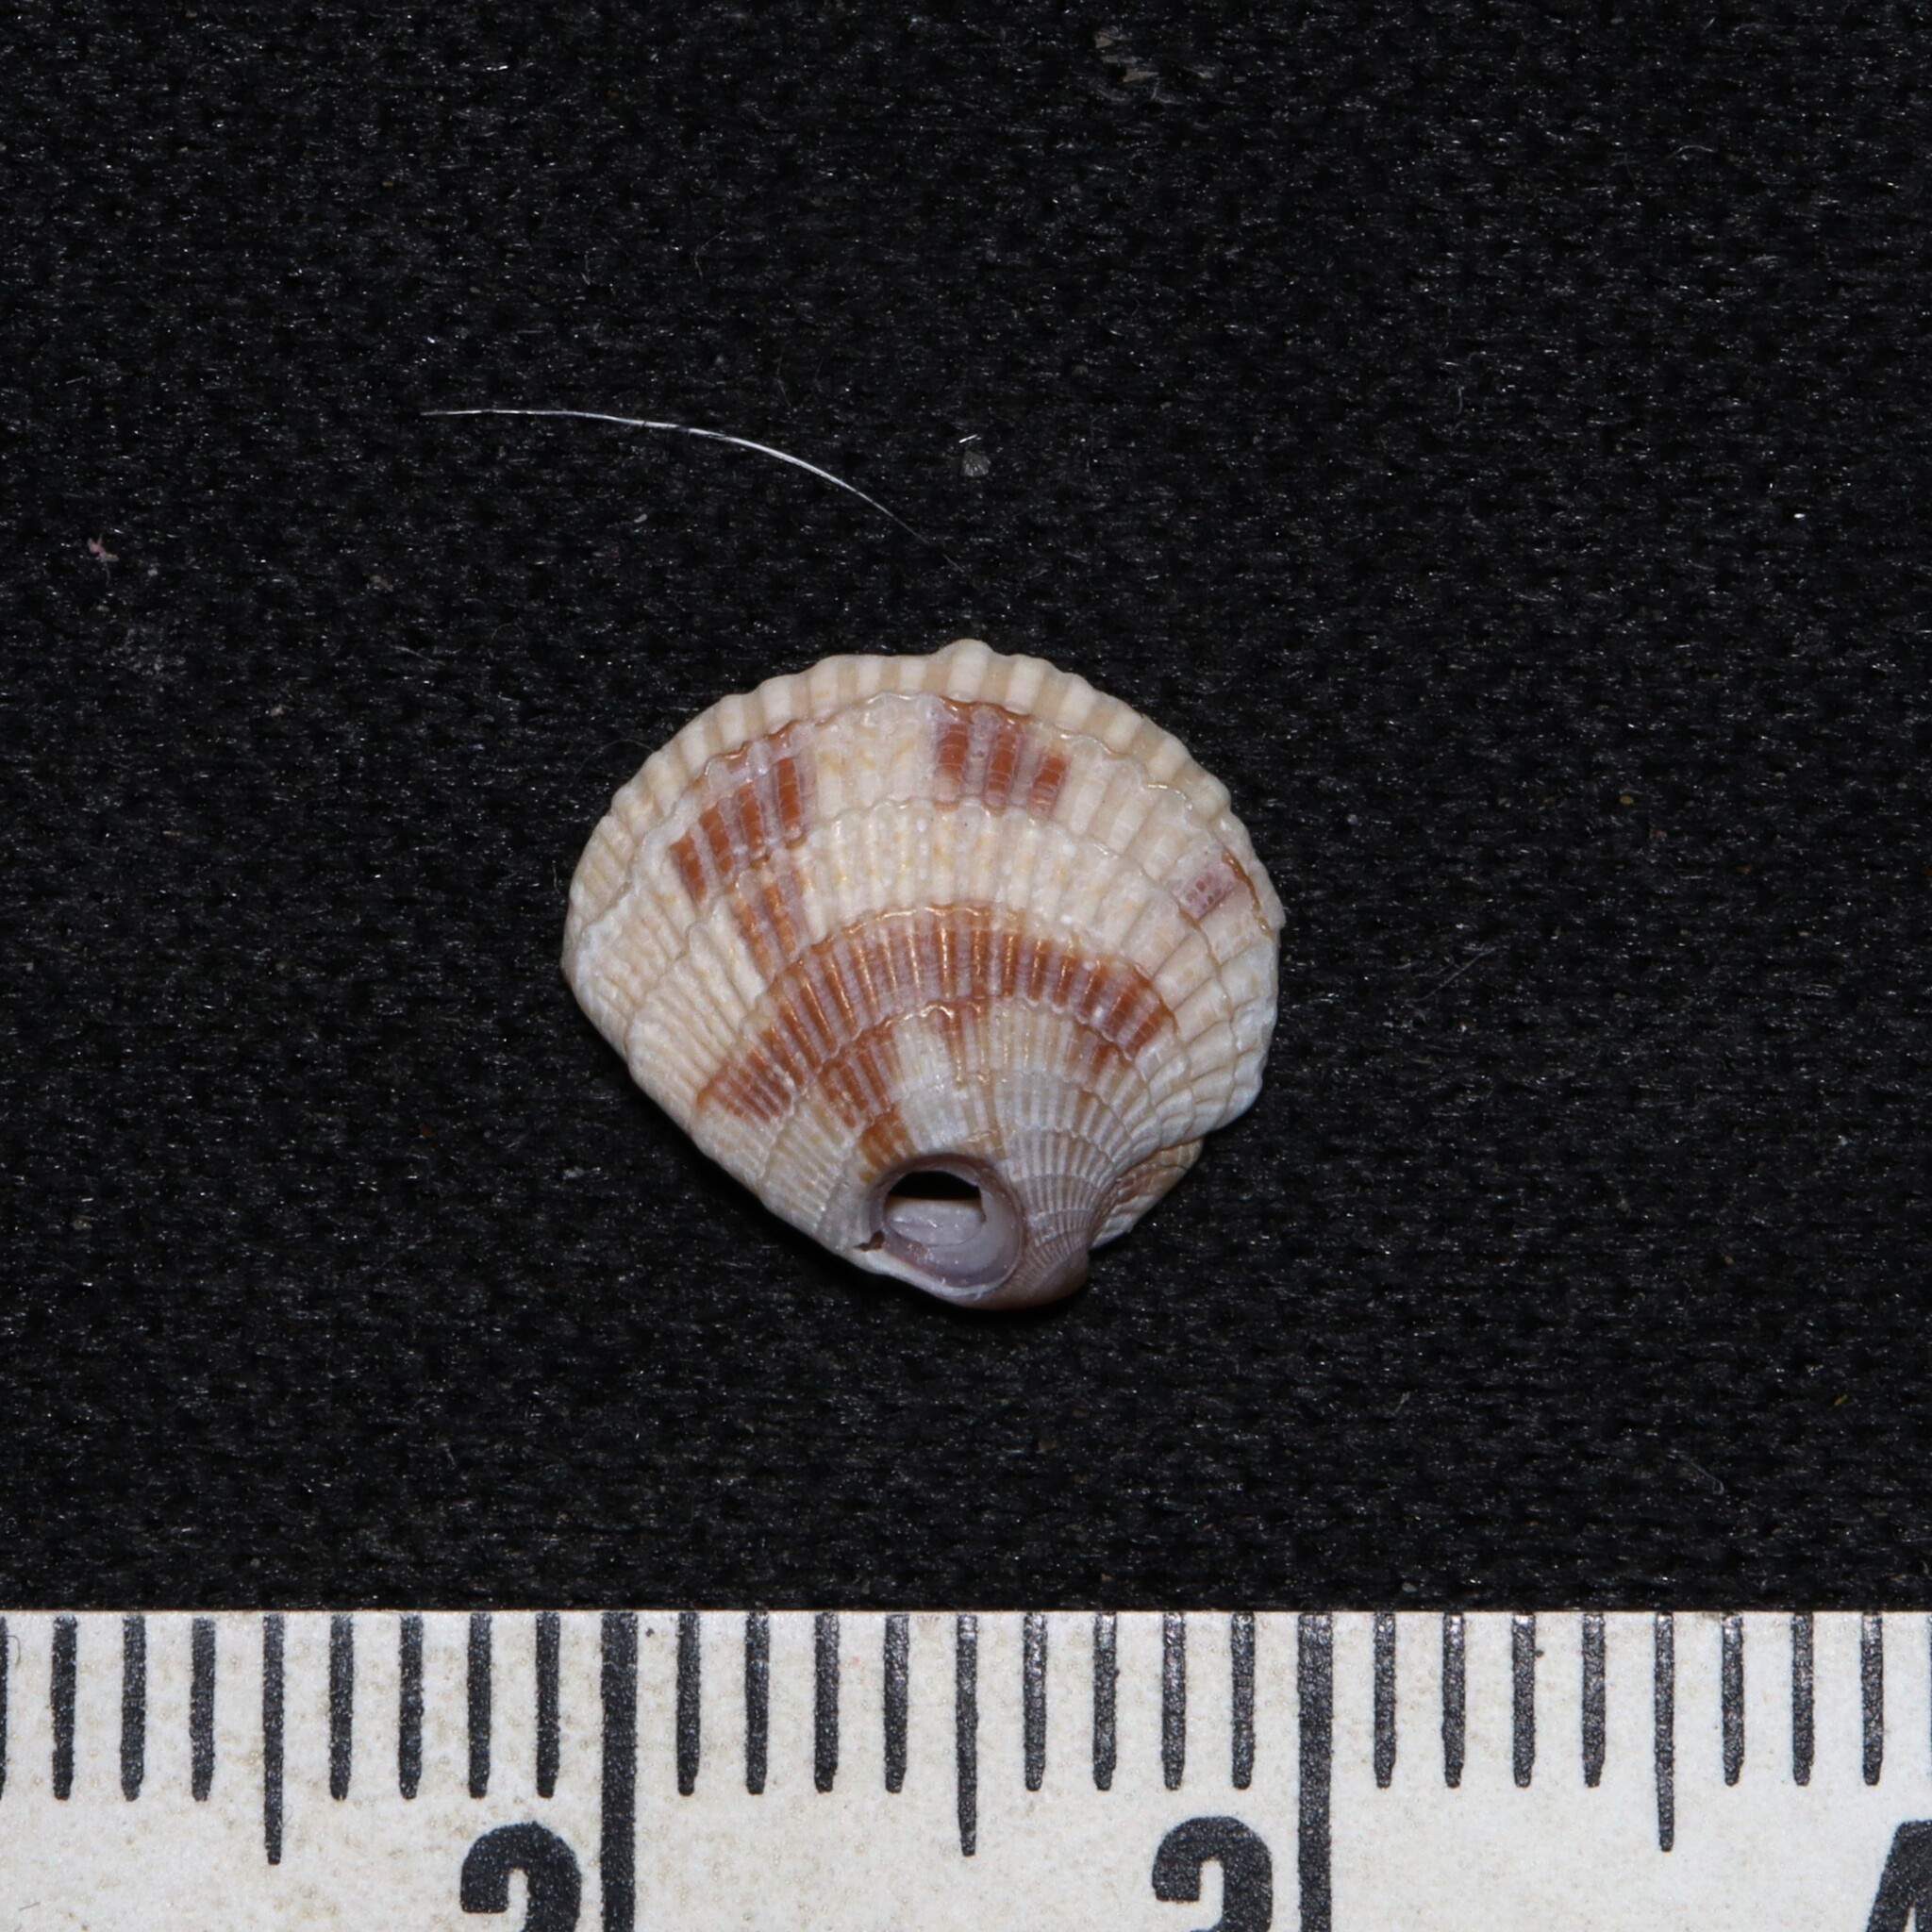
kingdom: Animalia
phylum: Mollusca
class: Bivalvia
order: Venerida
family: Veneridae
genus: Chione
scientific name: Chione elevata
